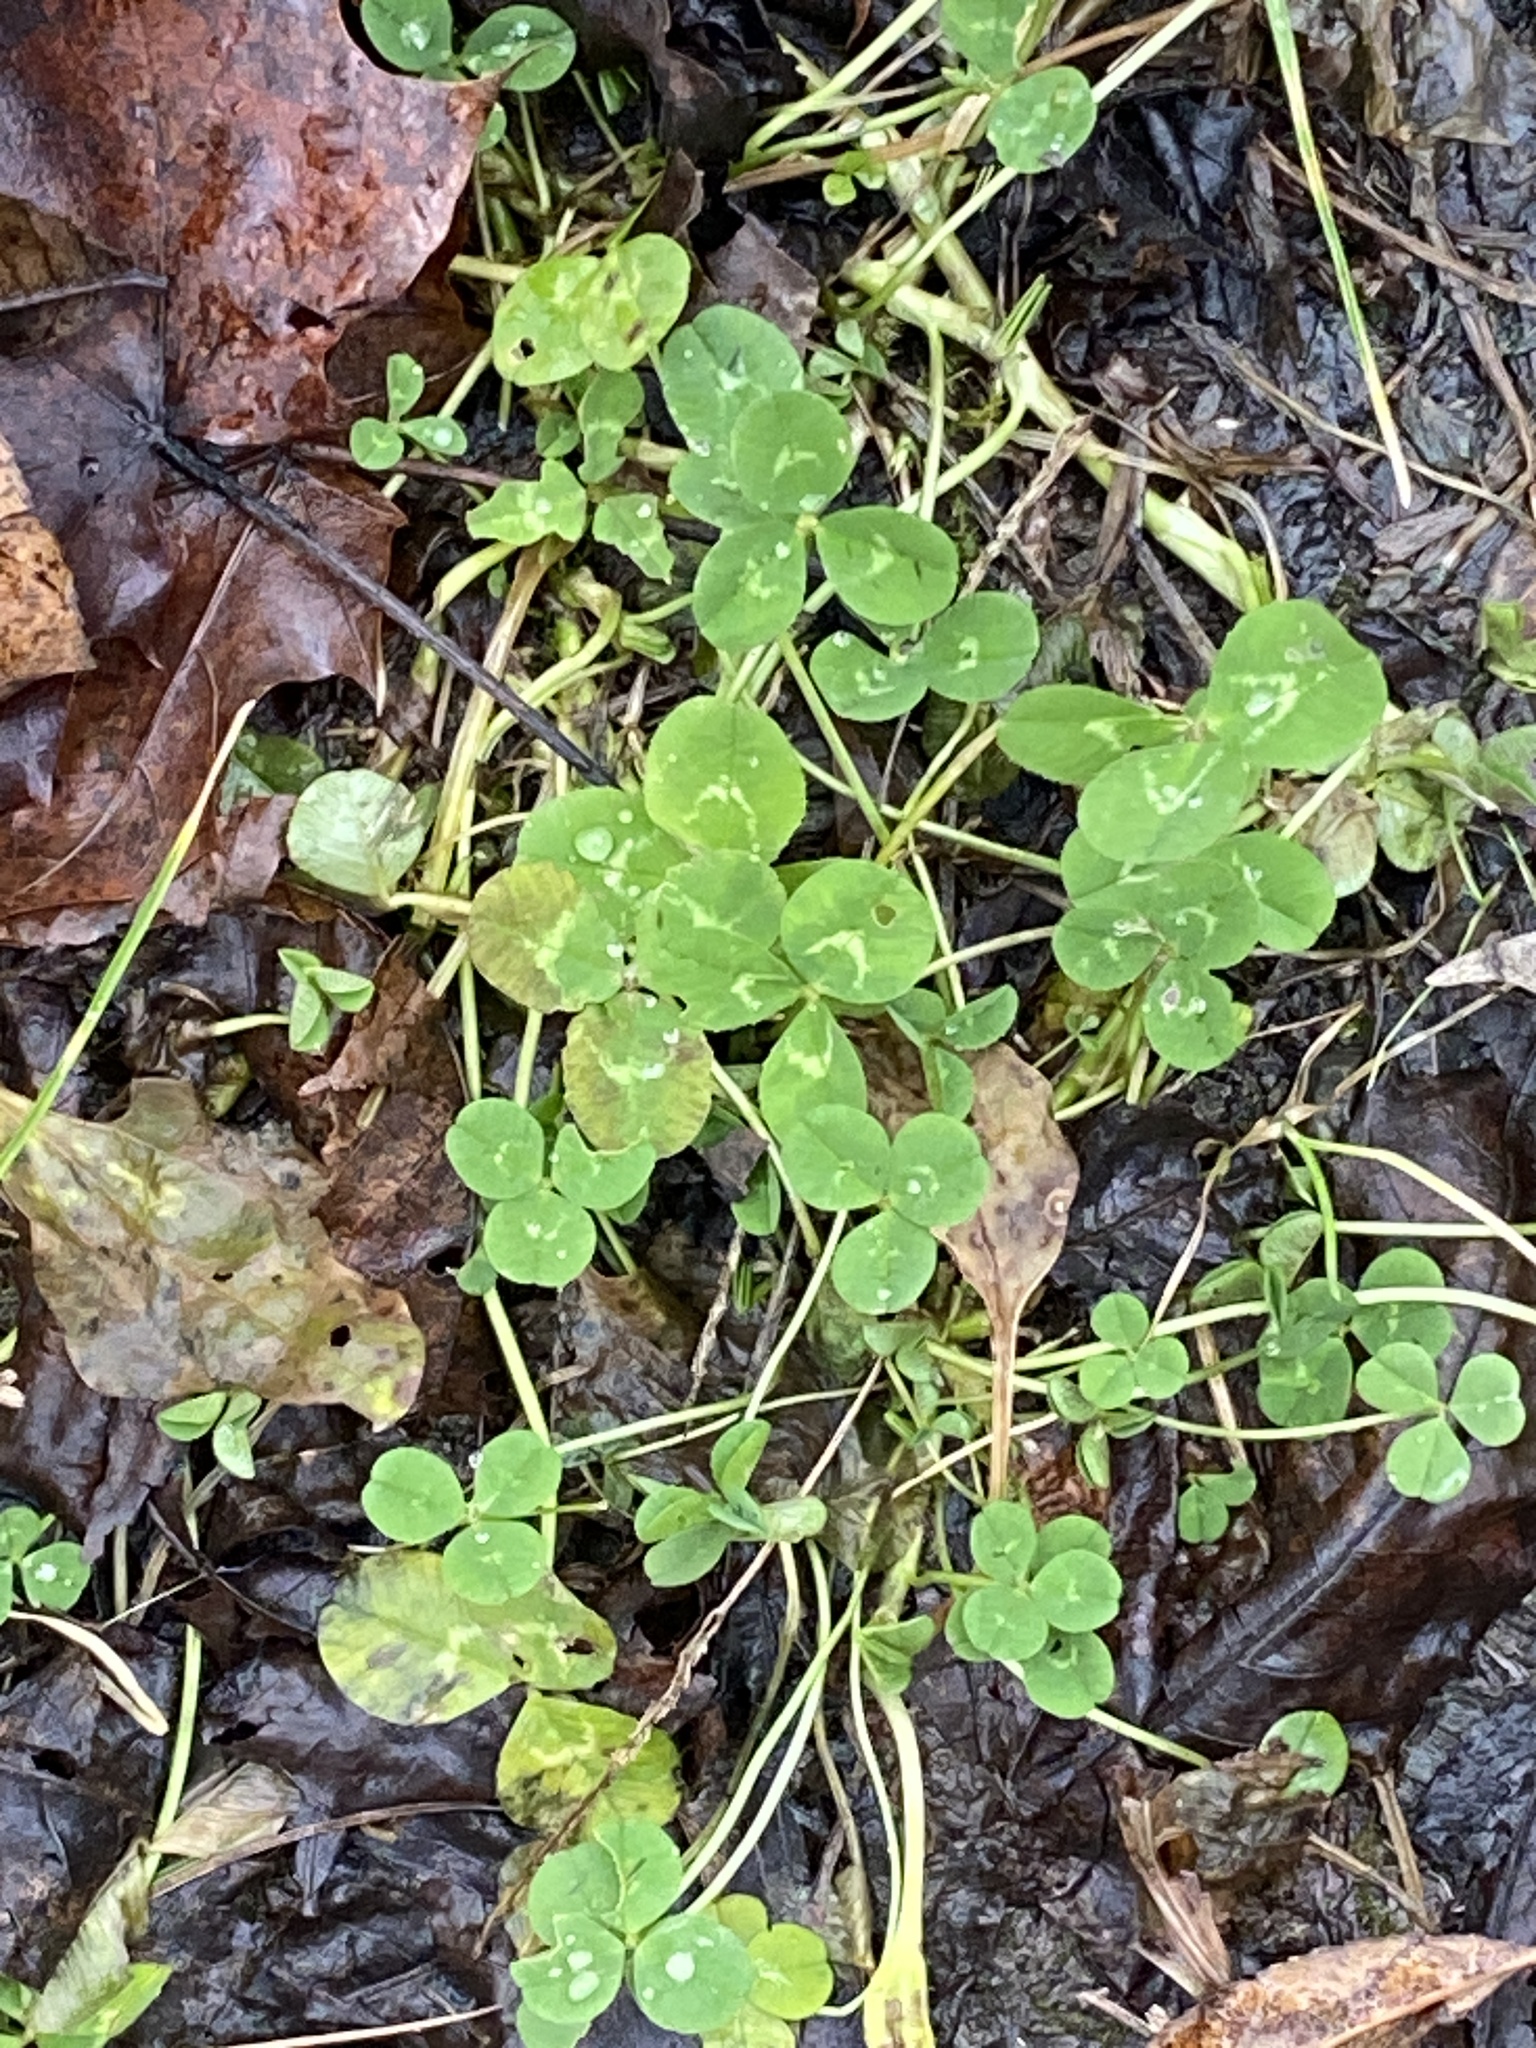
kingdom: Plantae
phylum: Tracheophyta
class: Magnoliopsida
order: Fabales
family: Fabaceae
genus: Trifolium
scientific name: Trifolium repens
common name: White clover
